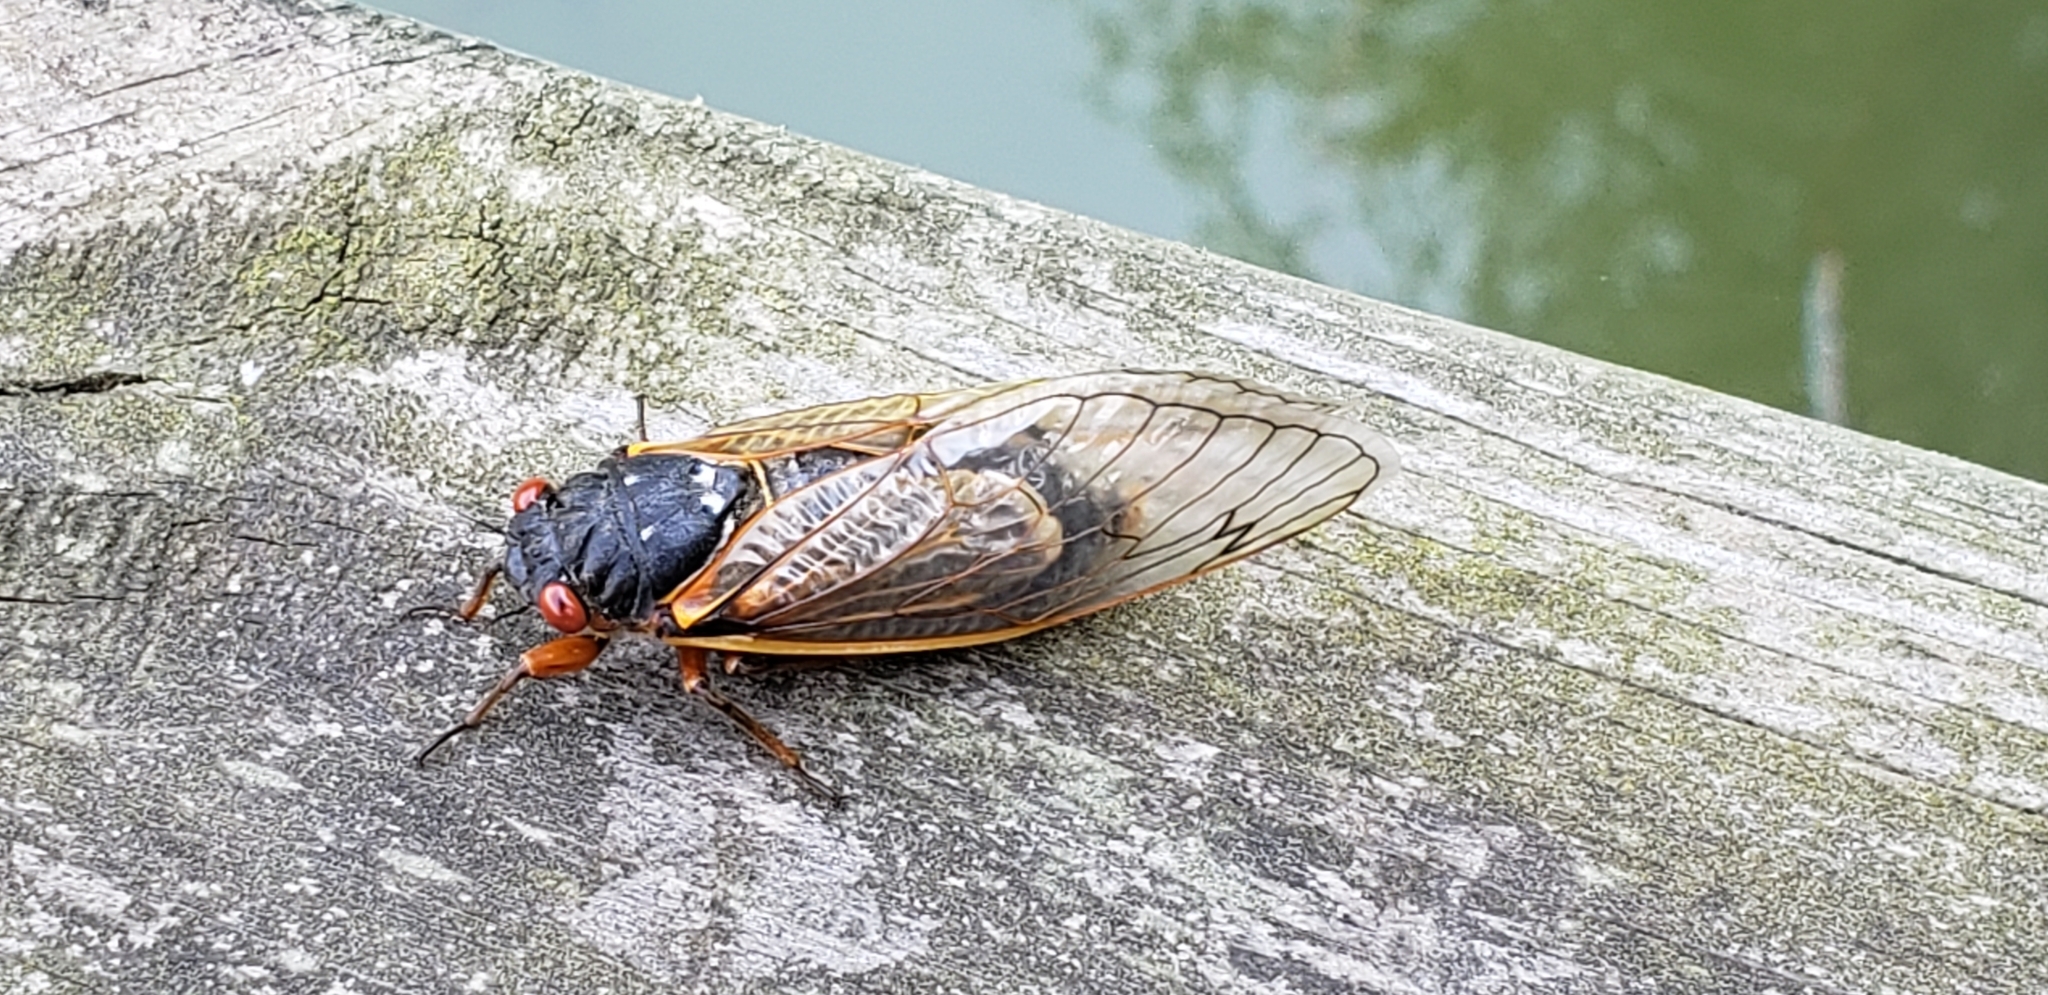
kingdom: Animalia
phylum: Arthropoda
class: Insecta
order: Hemiptera
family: Cicadidae
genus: Magicicada
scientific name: Magicicada septendecim
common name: Periodical cicada
